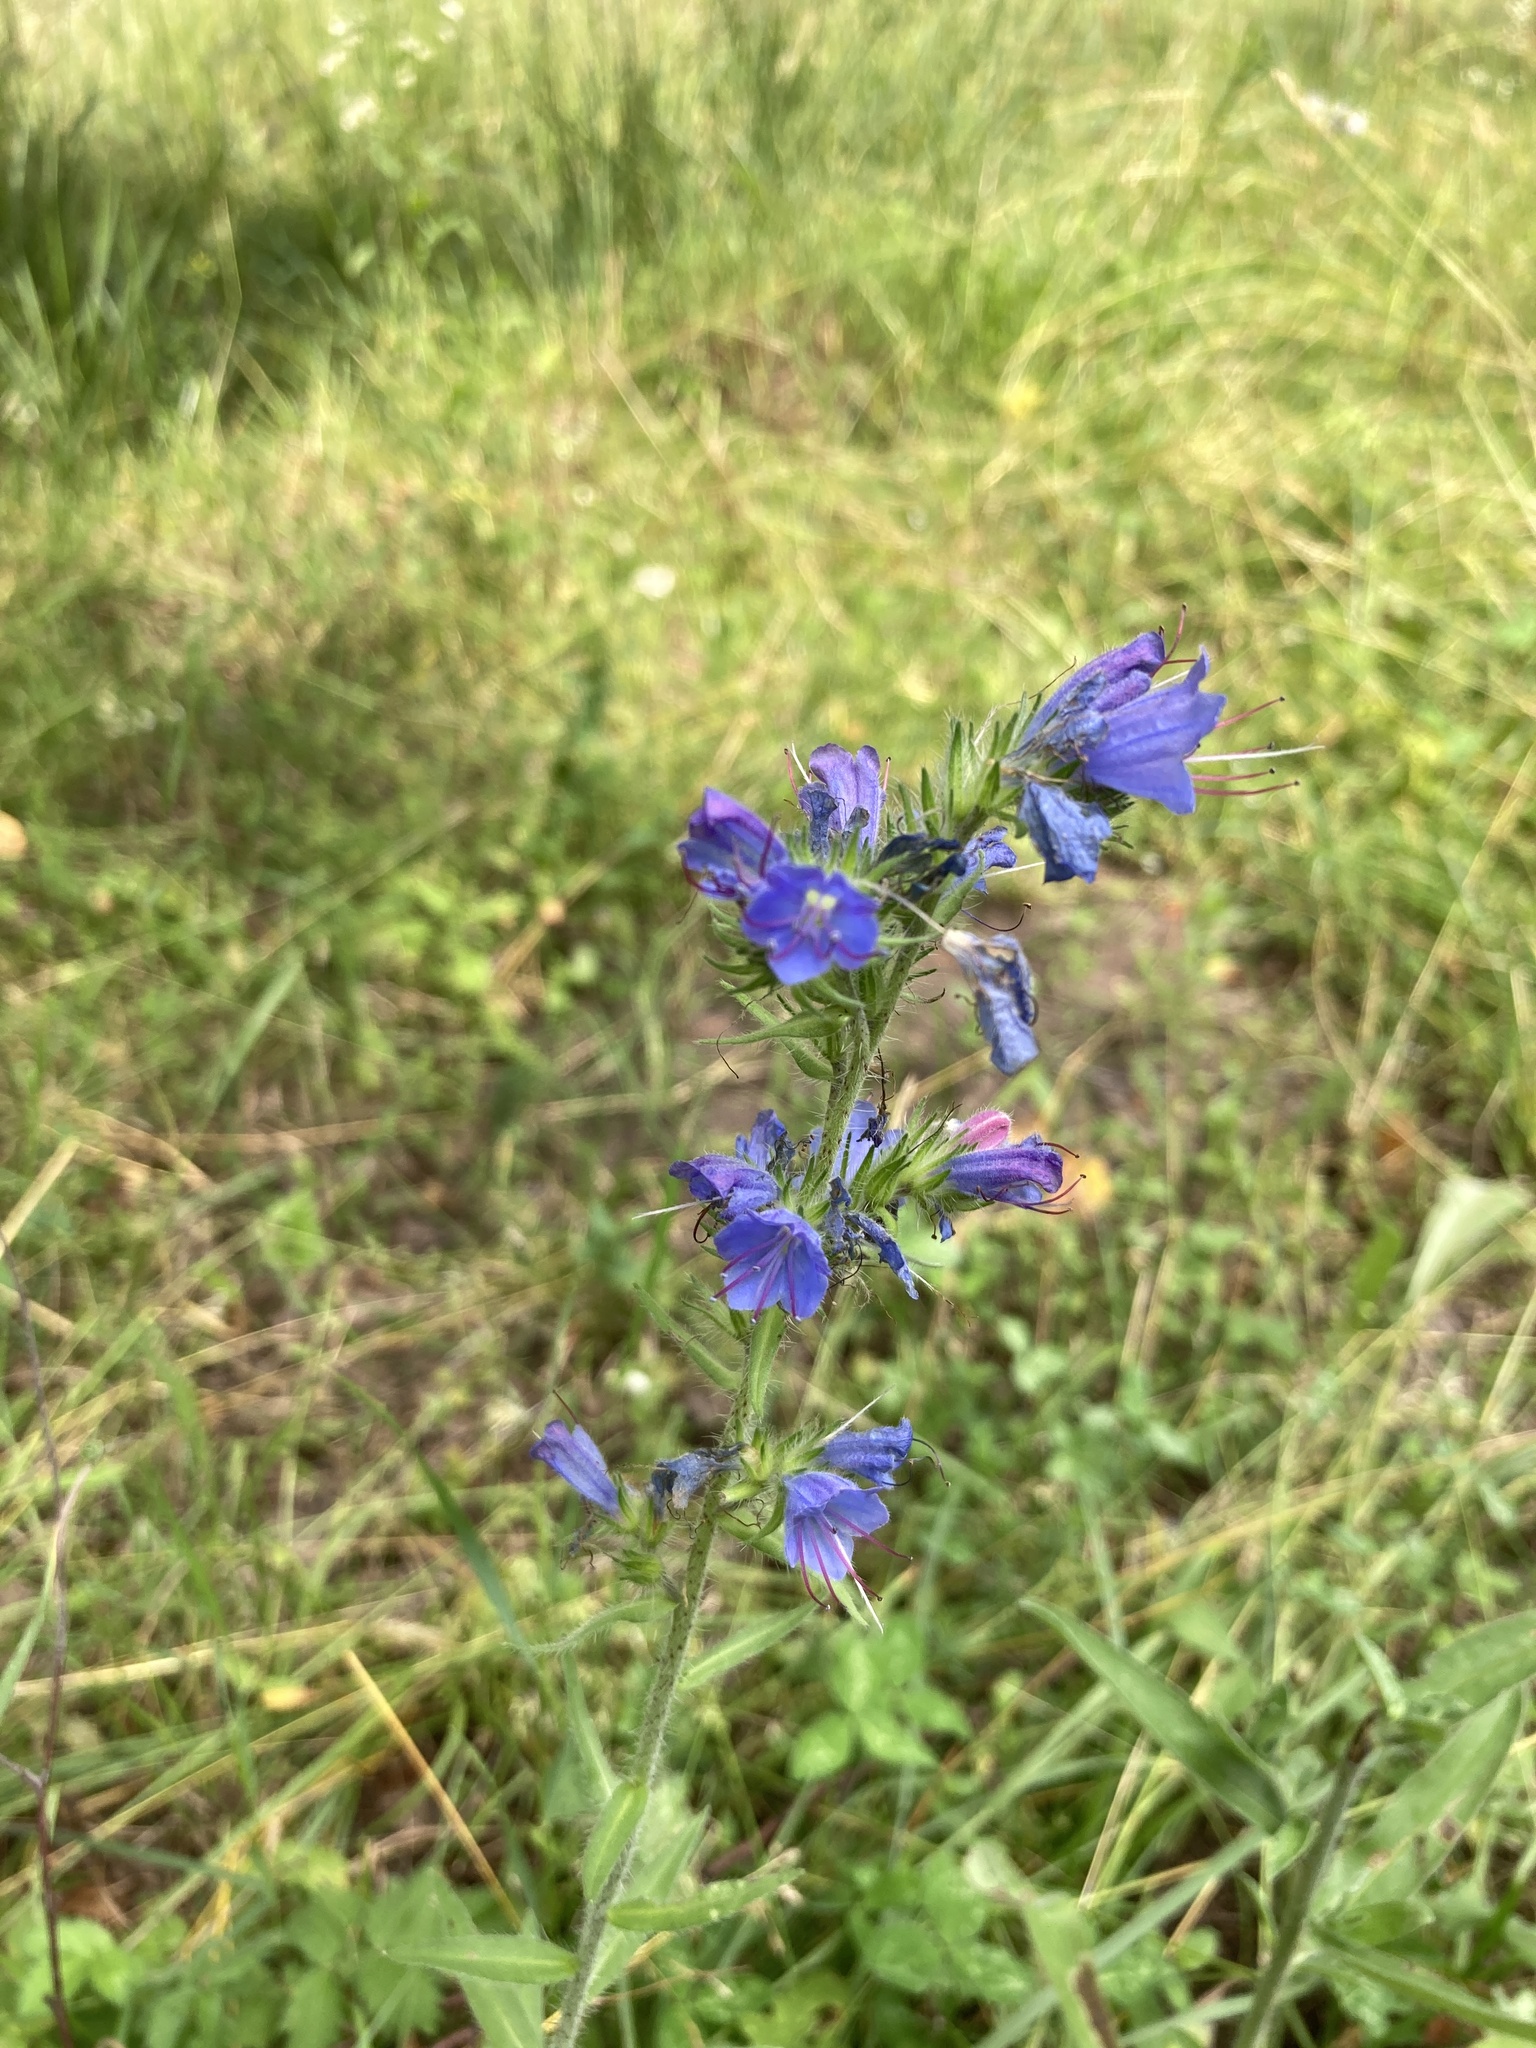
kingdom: Plantae
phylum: Tracheophyta
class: Magnoliopsida
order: Boraginales
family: Boraginaceae
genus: Echium
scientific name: Echium vulgare
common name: Common viper's bugloss
